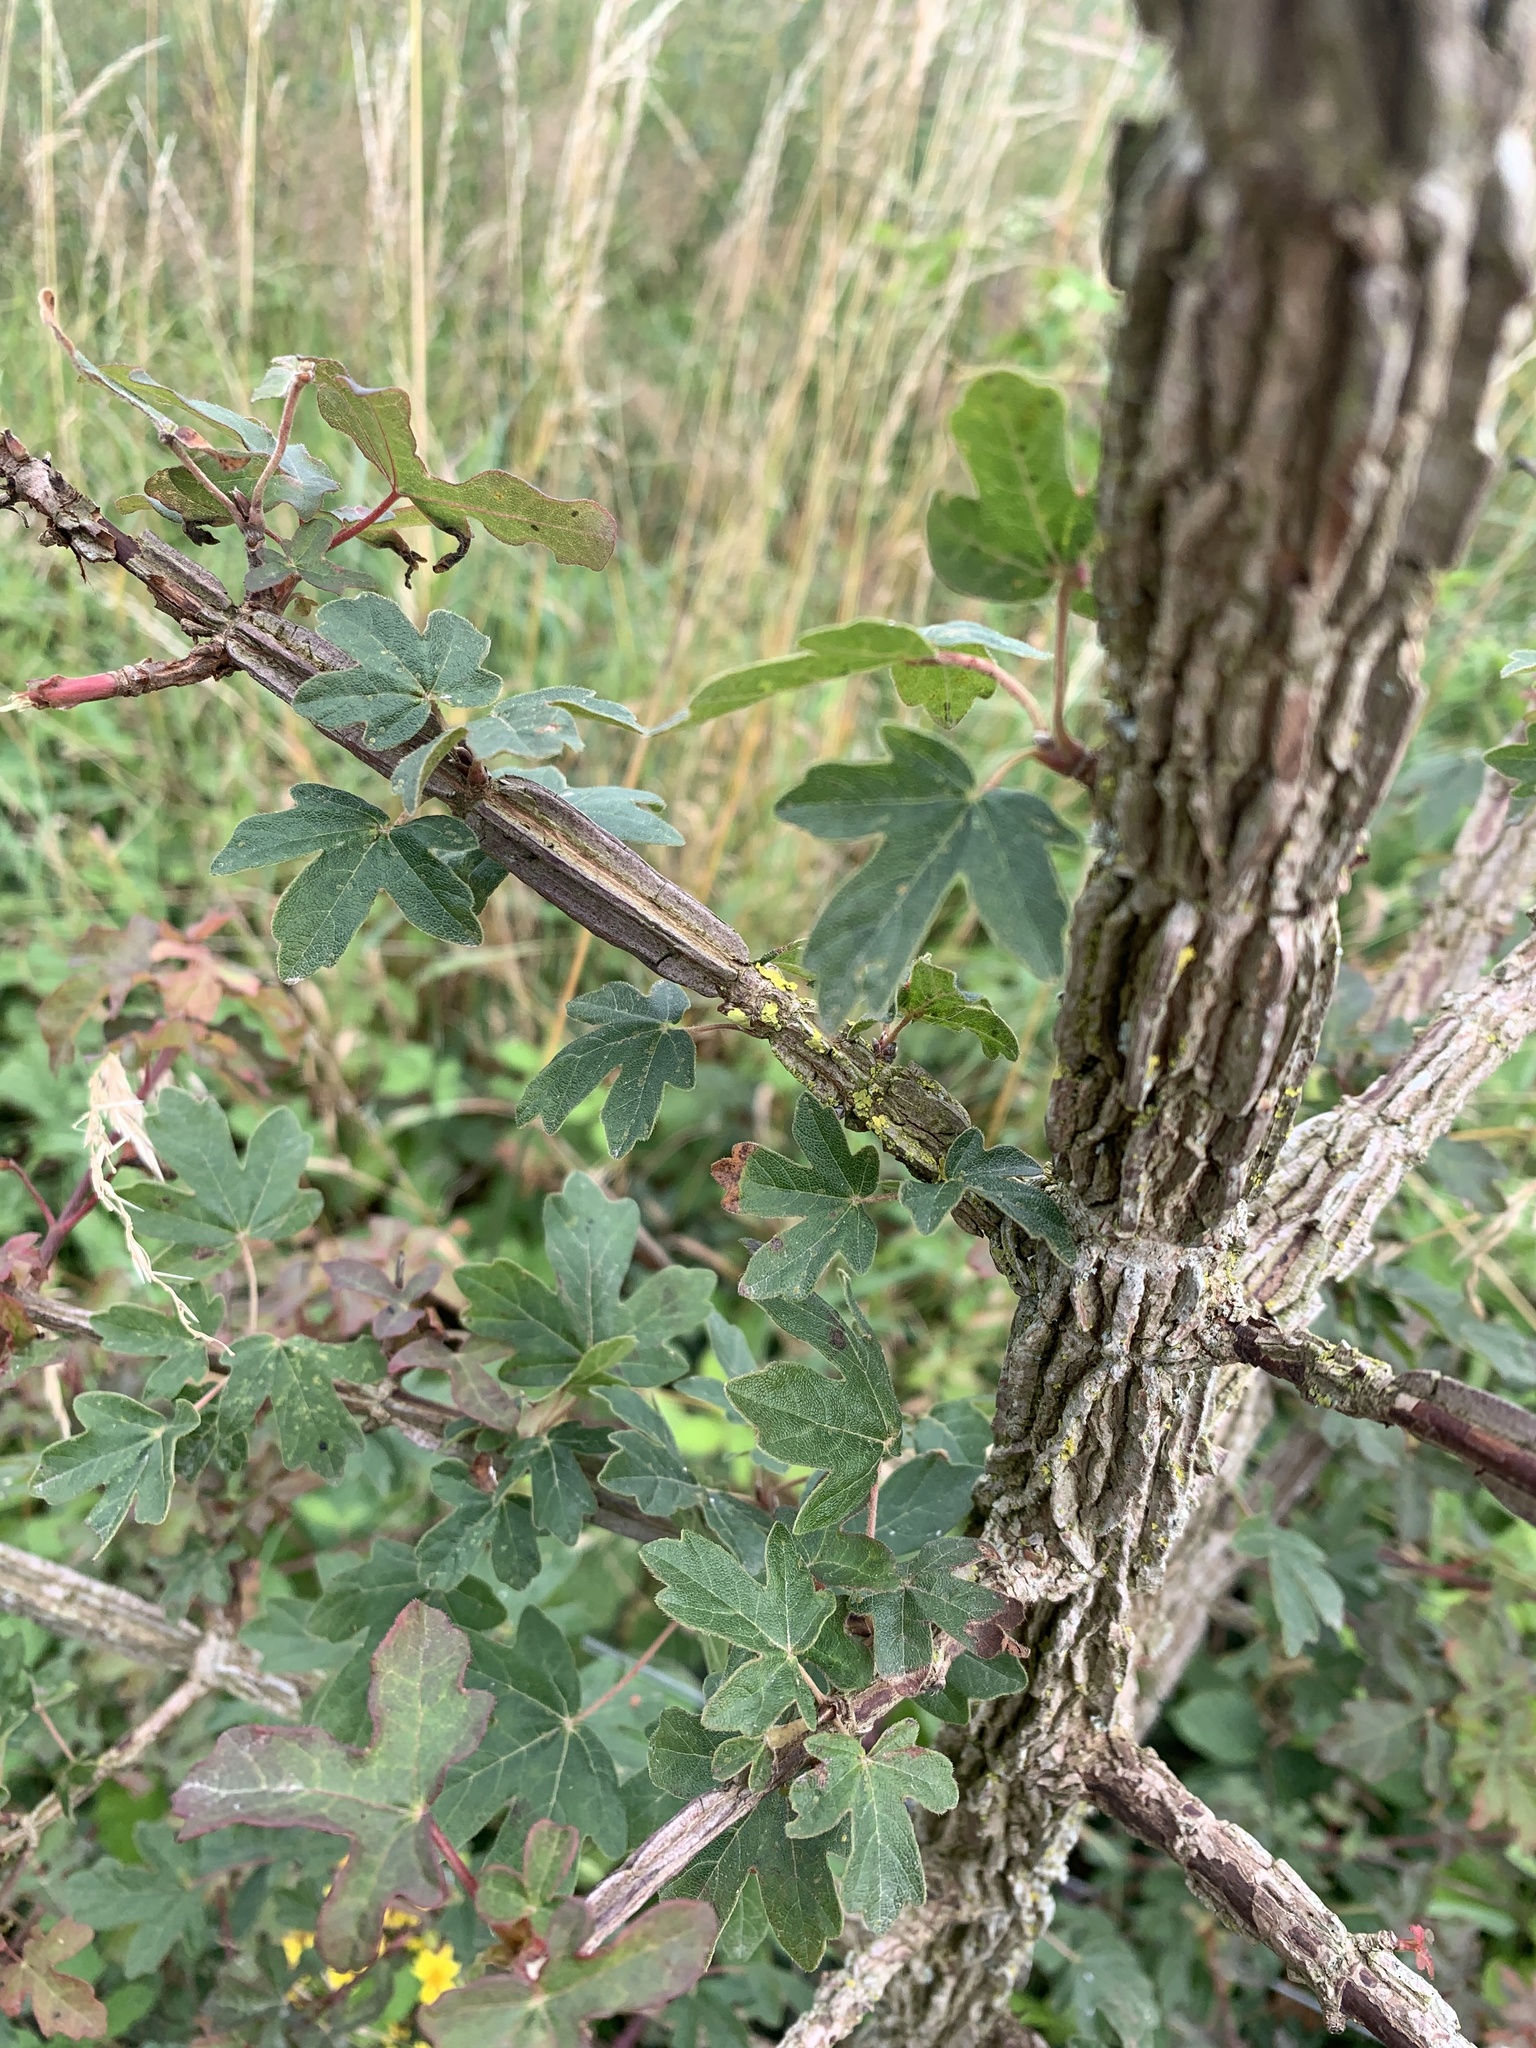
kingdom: Plantae
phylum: Tracheophyta
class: Magnoliopsida
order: Sapindales
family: Sapindaceae
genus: Acer
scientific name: Acer campestre
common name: Field maple
